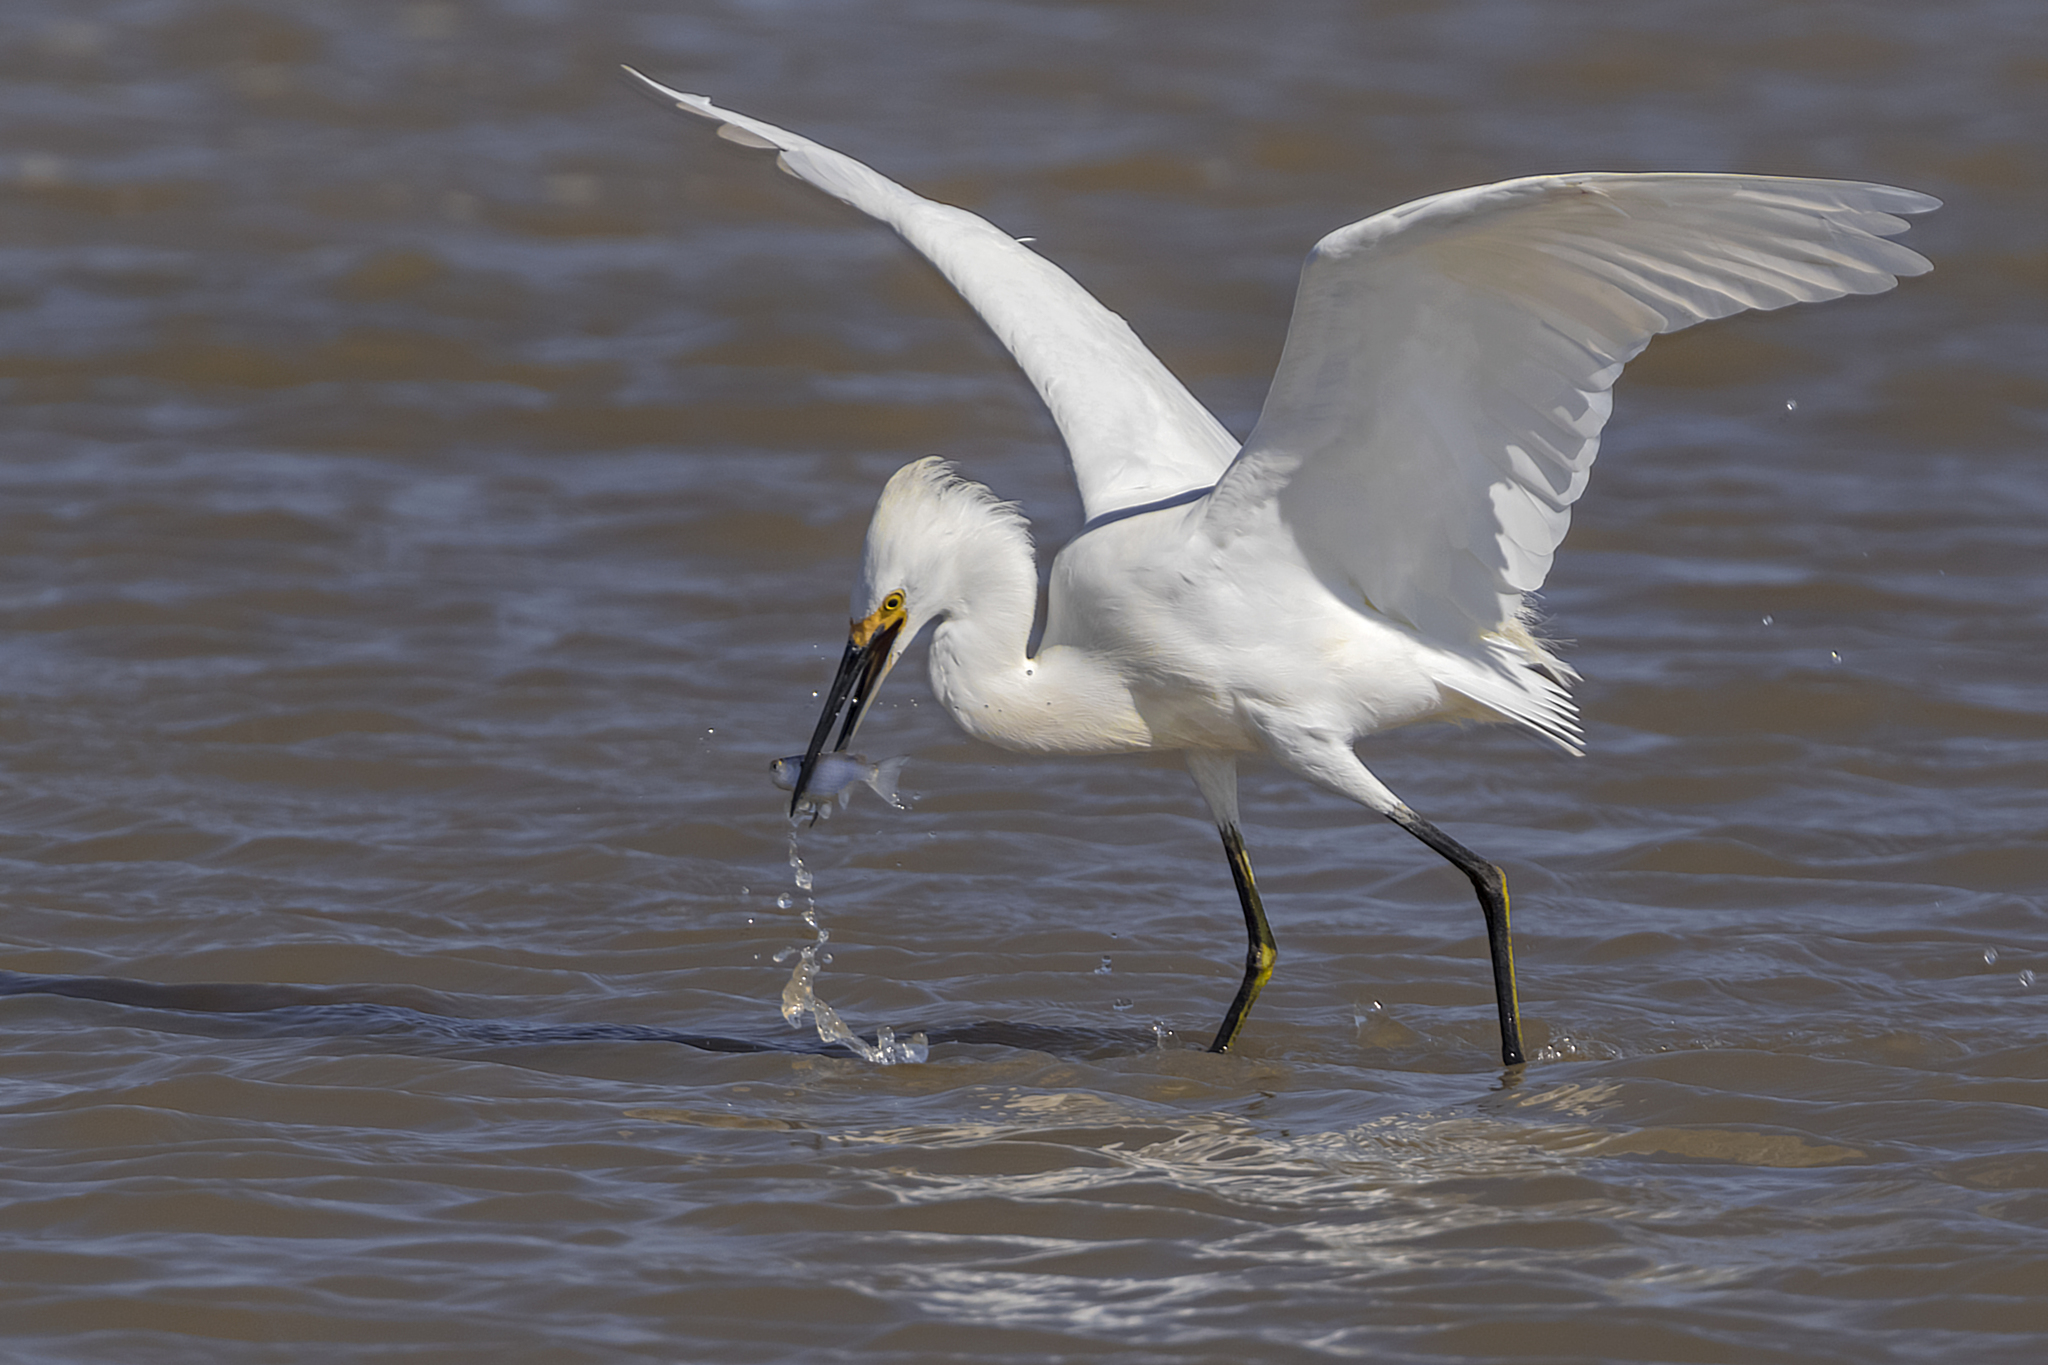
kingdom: Animalia
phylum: Chordata
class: Aves
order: Pelecaniformes
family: Ardeidae
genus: Egretta
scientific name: Egretta thula
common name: Snowy egret
